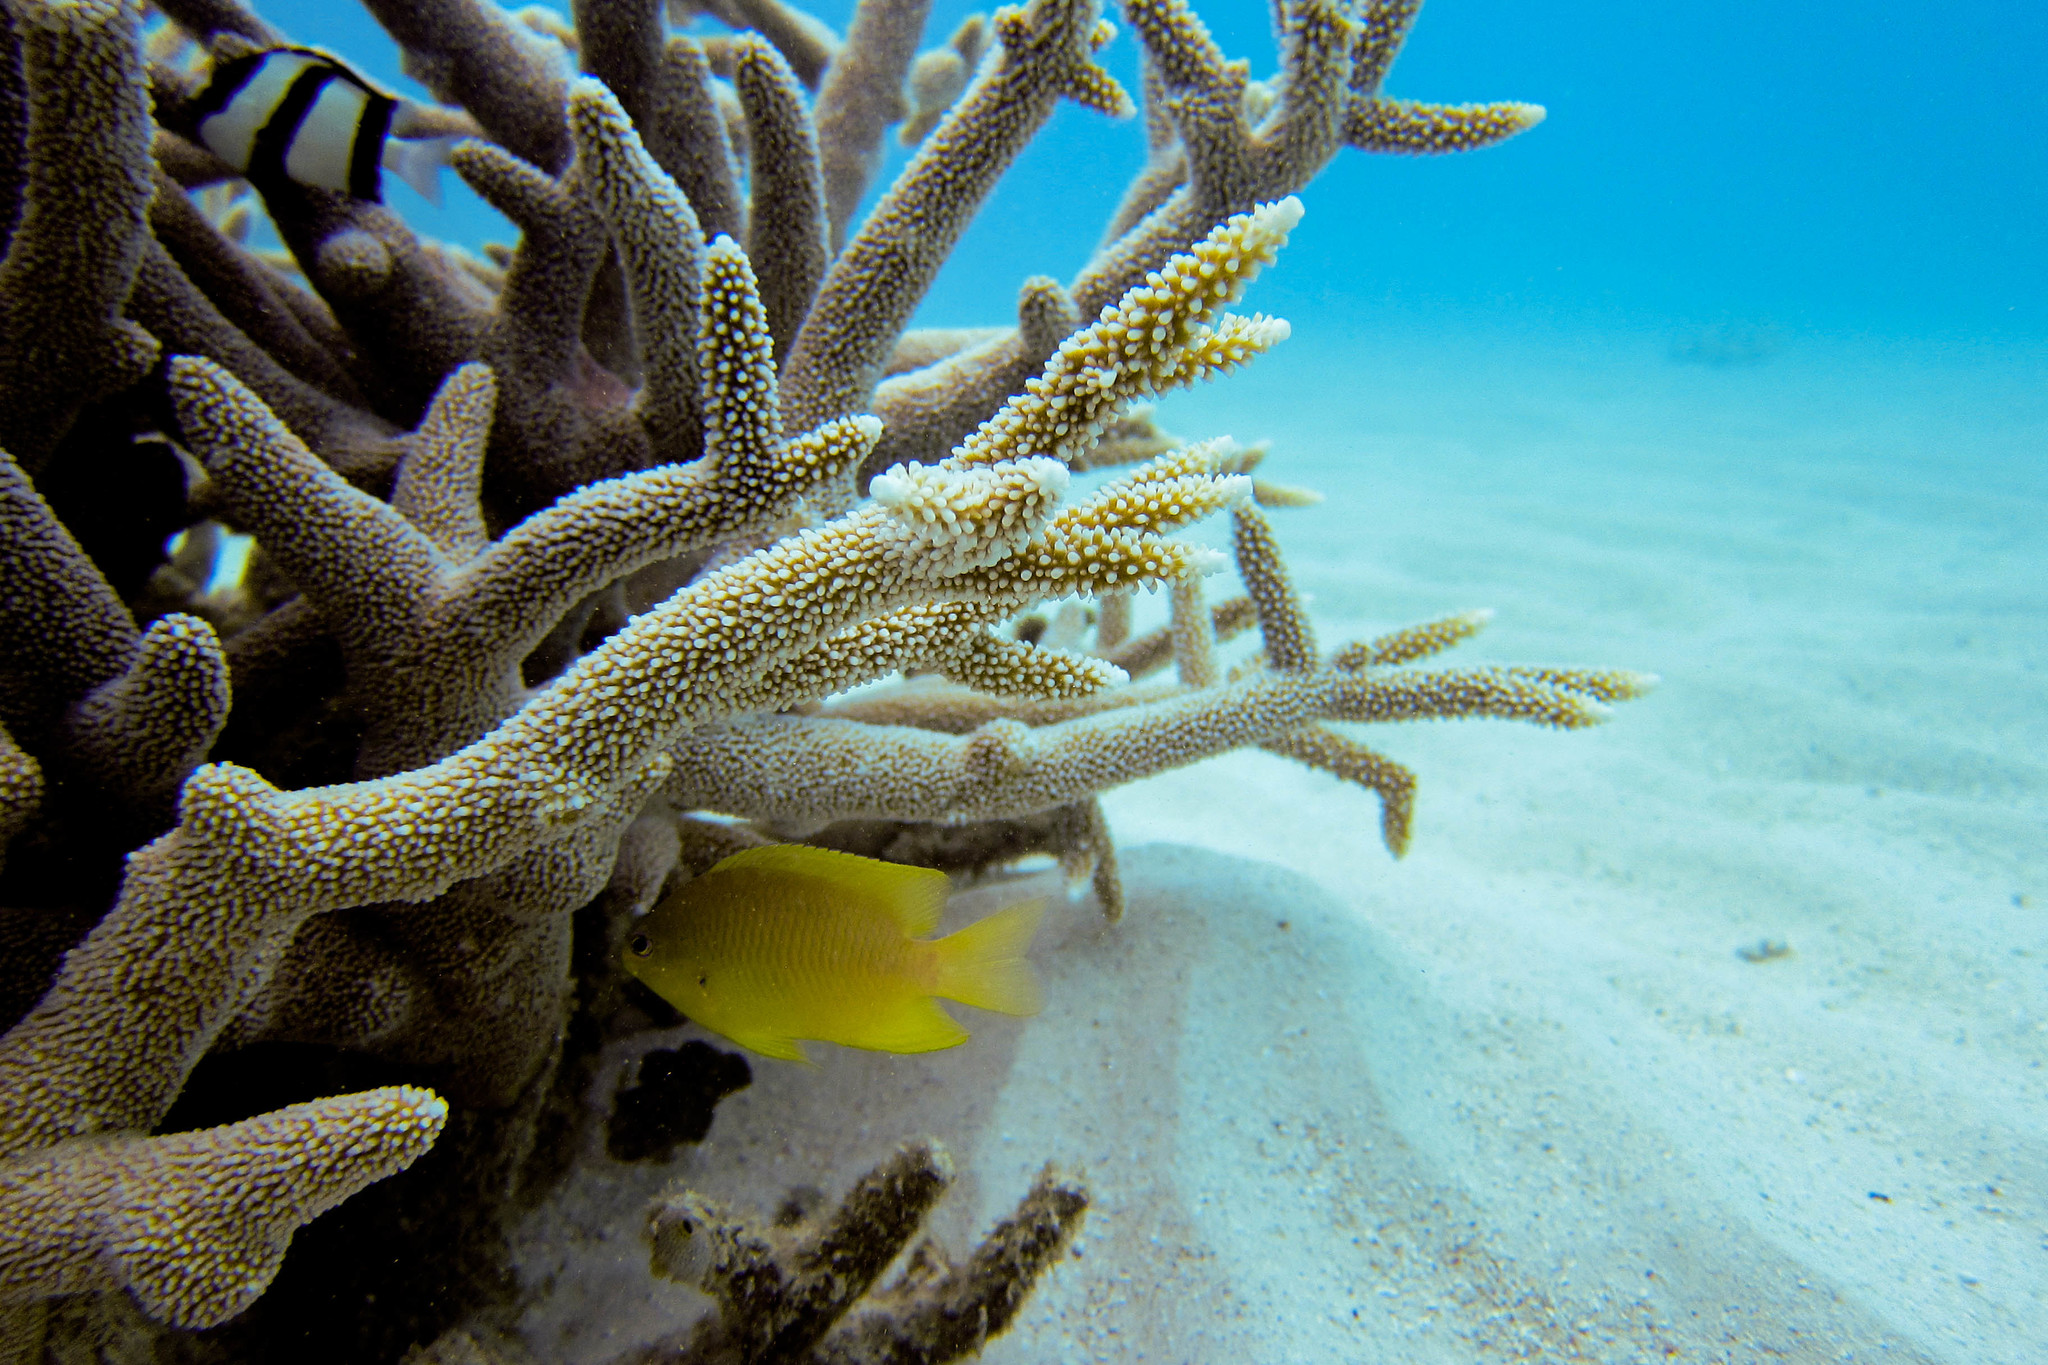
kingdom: Animalia
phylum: Chordata
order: Perciformes
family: Pomacentridae
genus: Pomacentrus
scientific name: Pomacentrus moluccensis
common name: Lemon damsel
